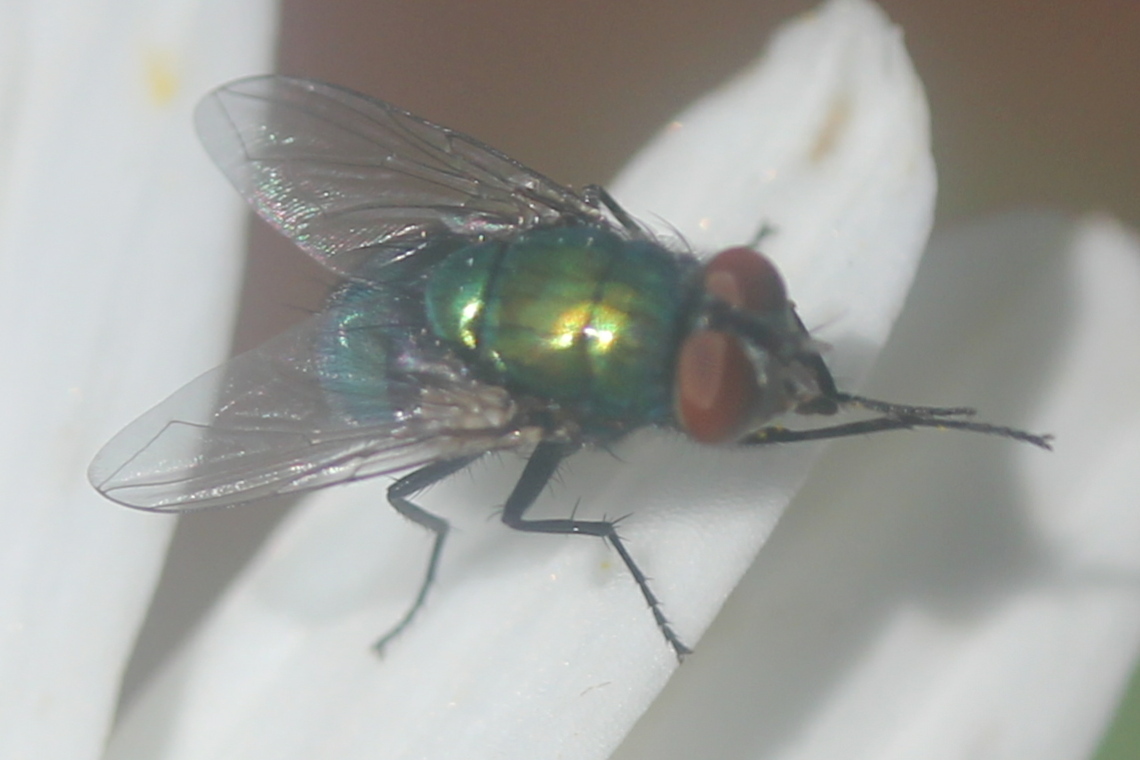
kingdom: Animalia
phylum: Arthropoda
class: Insecta
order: Diptera
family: Calliphoridae
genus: Lucilia
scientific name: Lucilia sericata
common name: Blow fly
